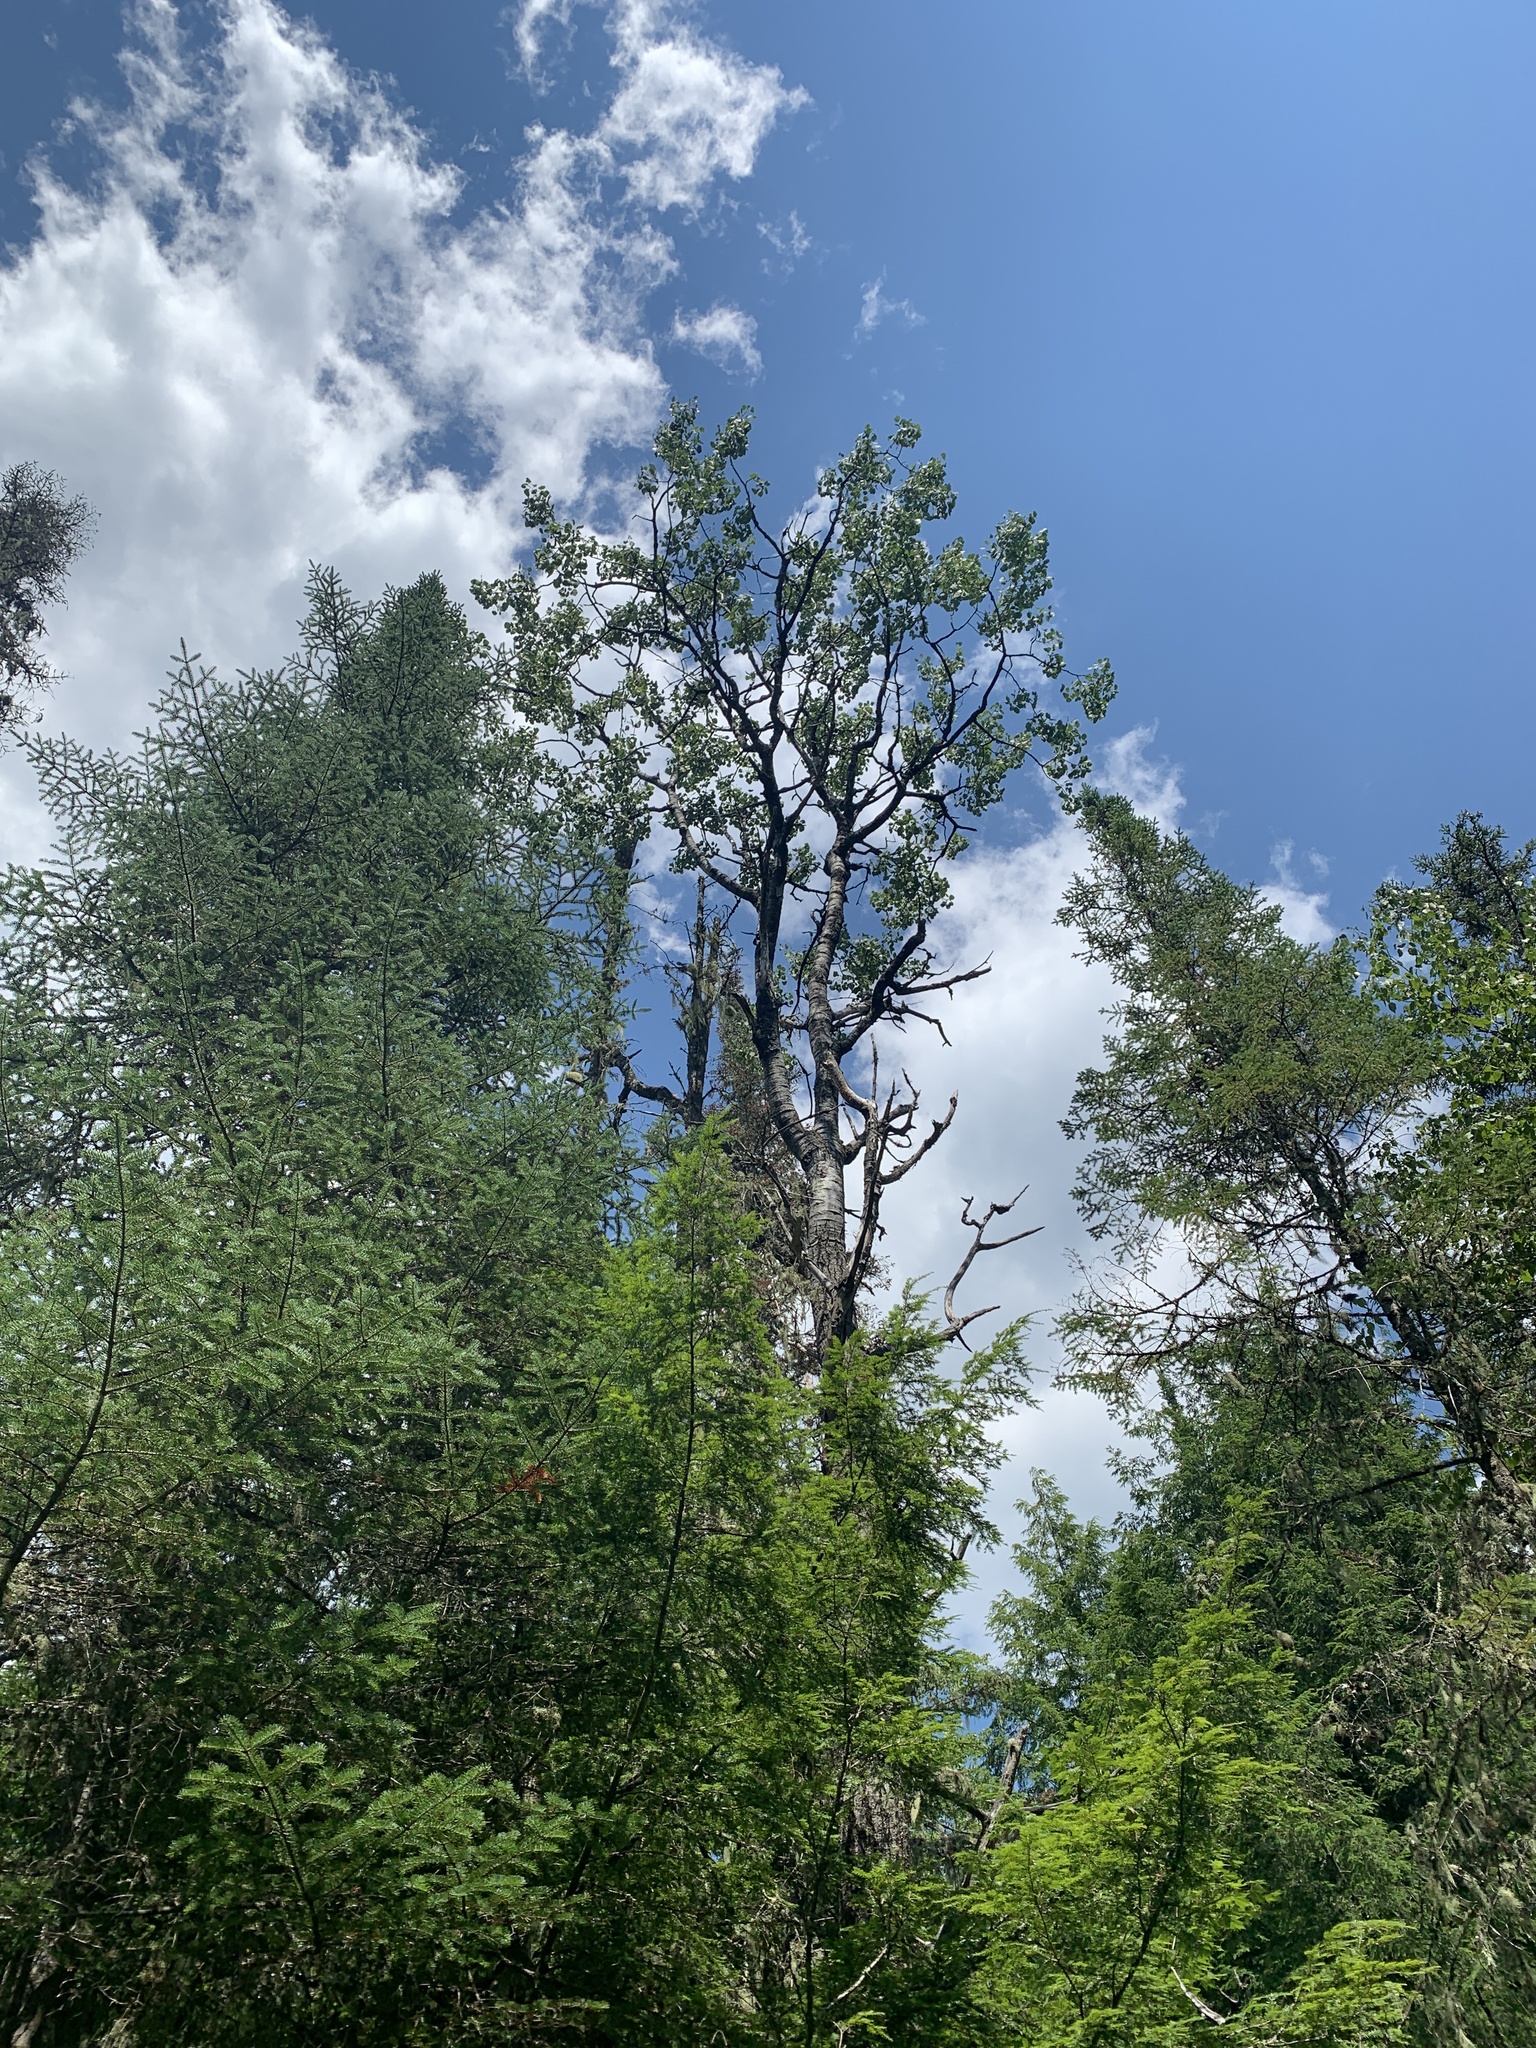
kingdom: Plantae
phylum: Tracheophyta
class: Magnoliopsida
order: Malpighiales
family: Salicaceae
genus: Populus
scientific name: Populus tremuloides
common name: Quaking aspen
